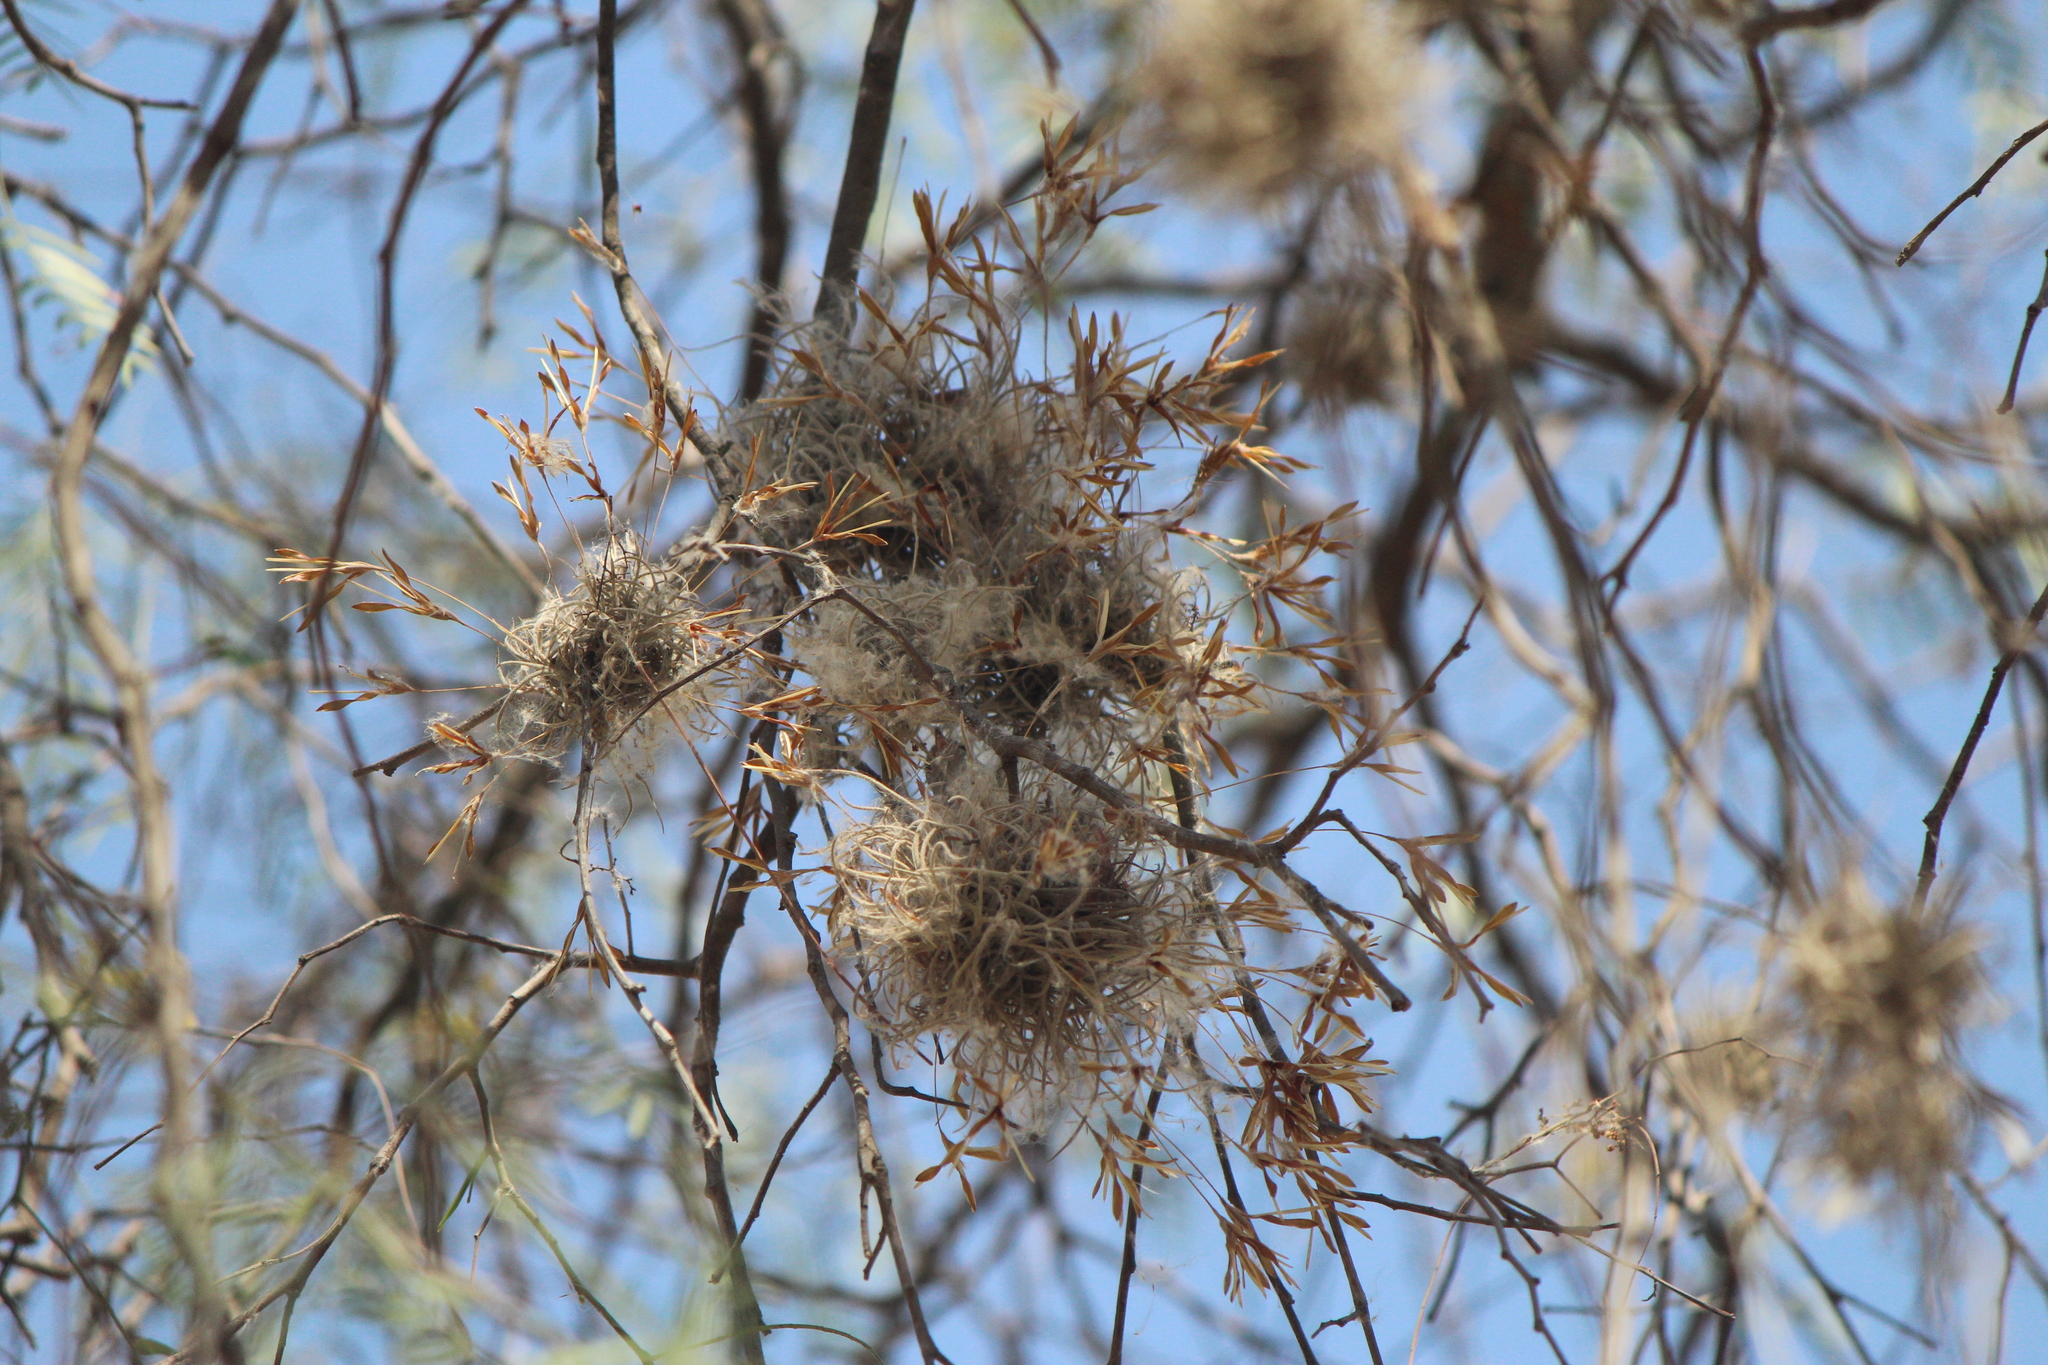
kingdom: Plantae
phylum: Tracheophyta
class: Liliopsida
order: Poales
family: Bromeliaceae
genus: Tillandsia
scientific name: Tillandsia recurvata
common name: Small ballmoss
